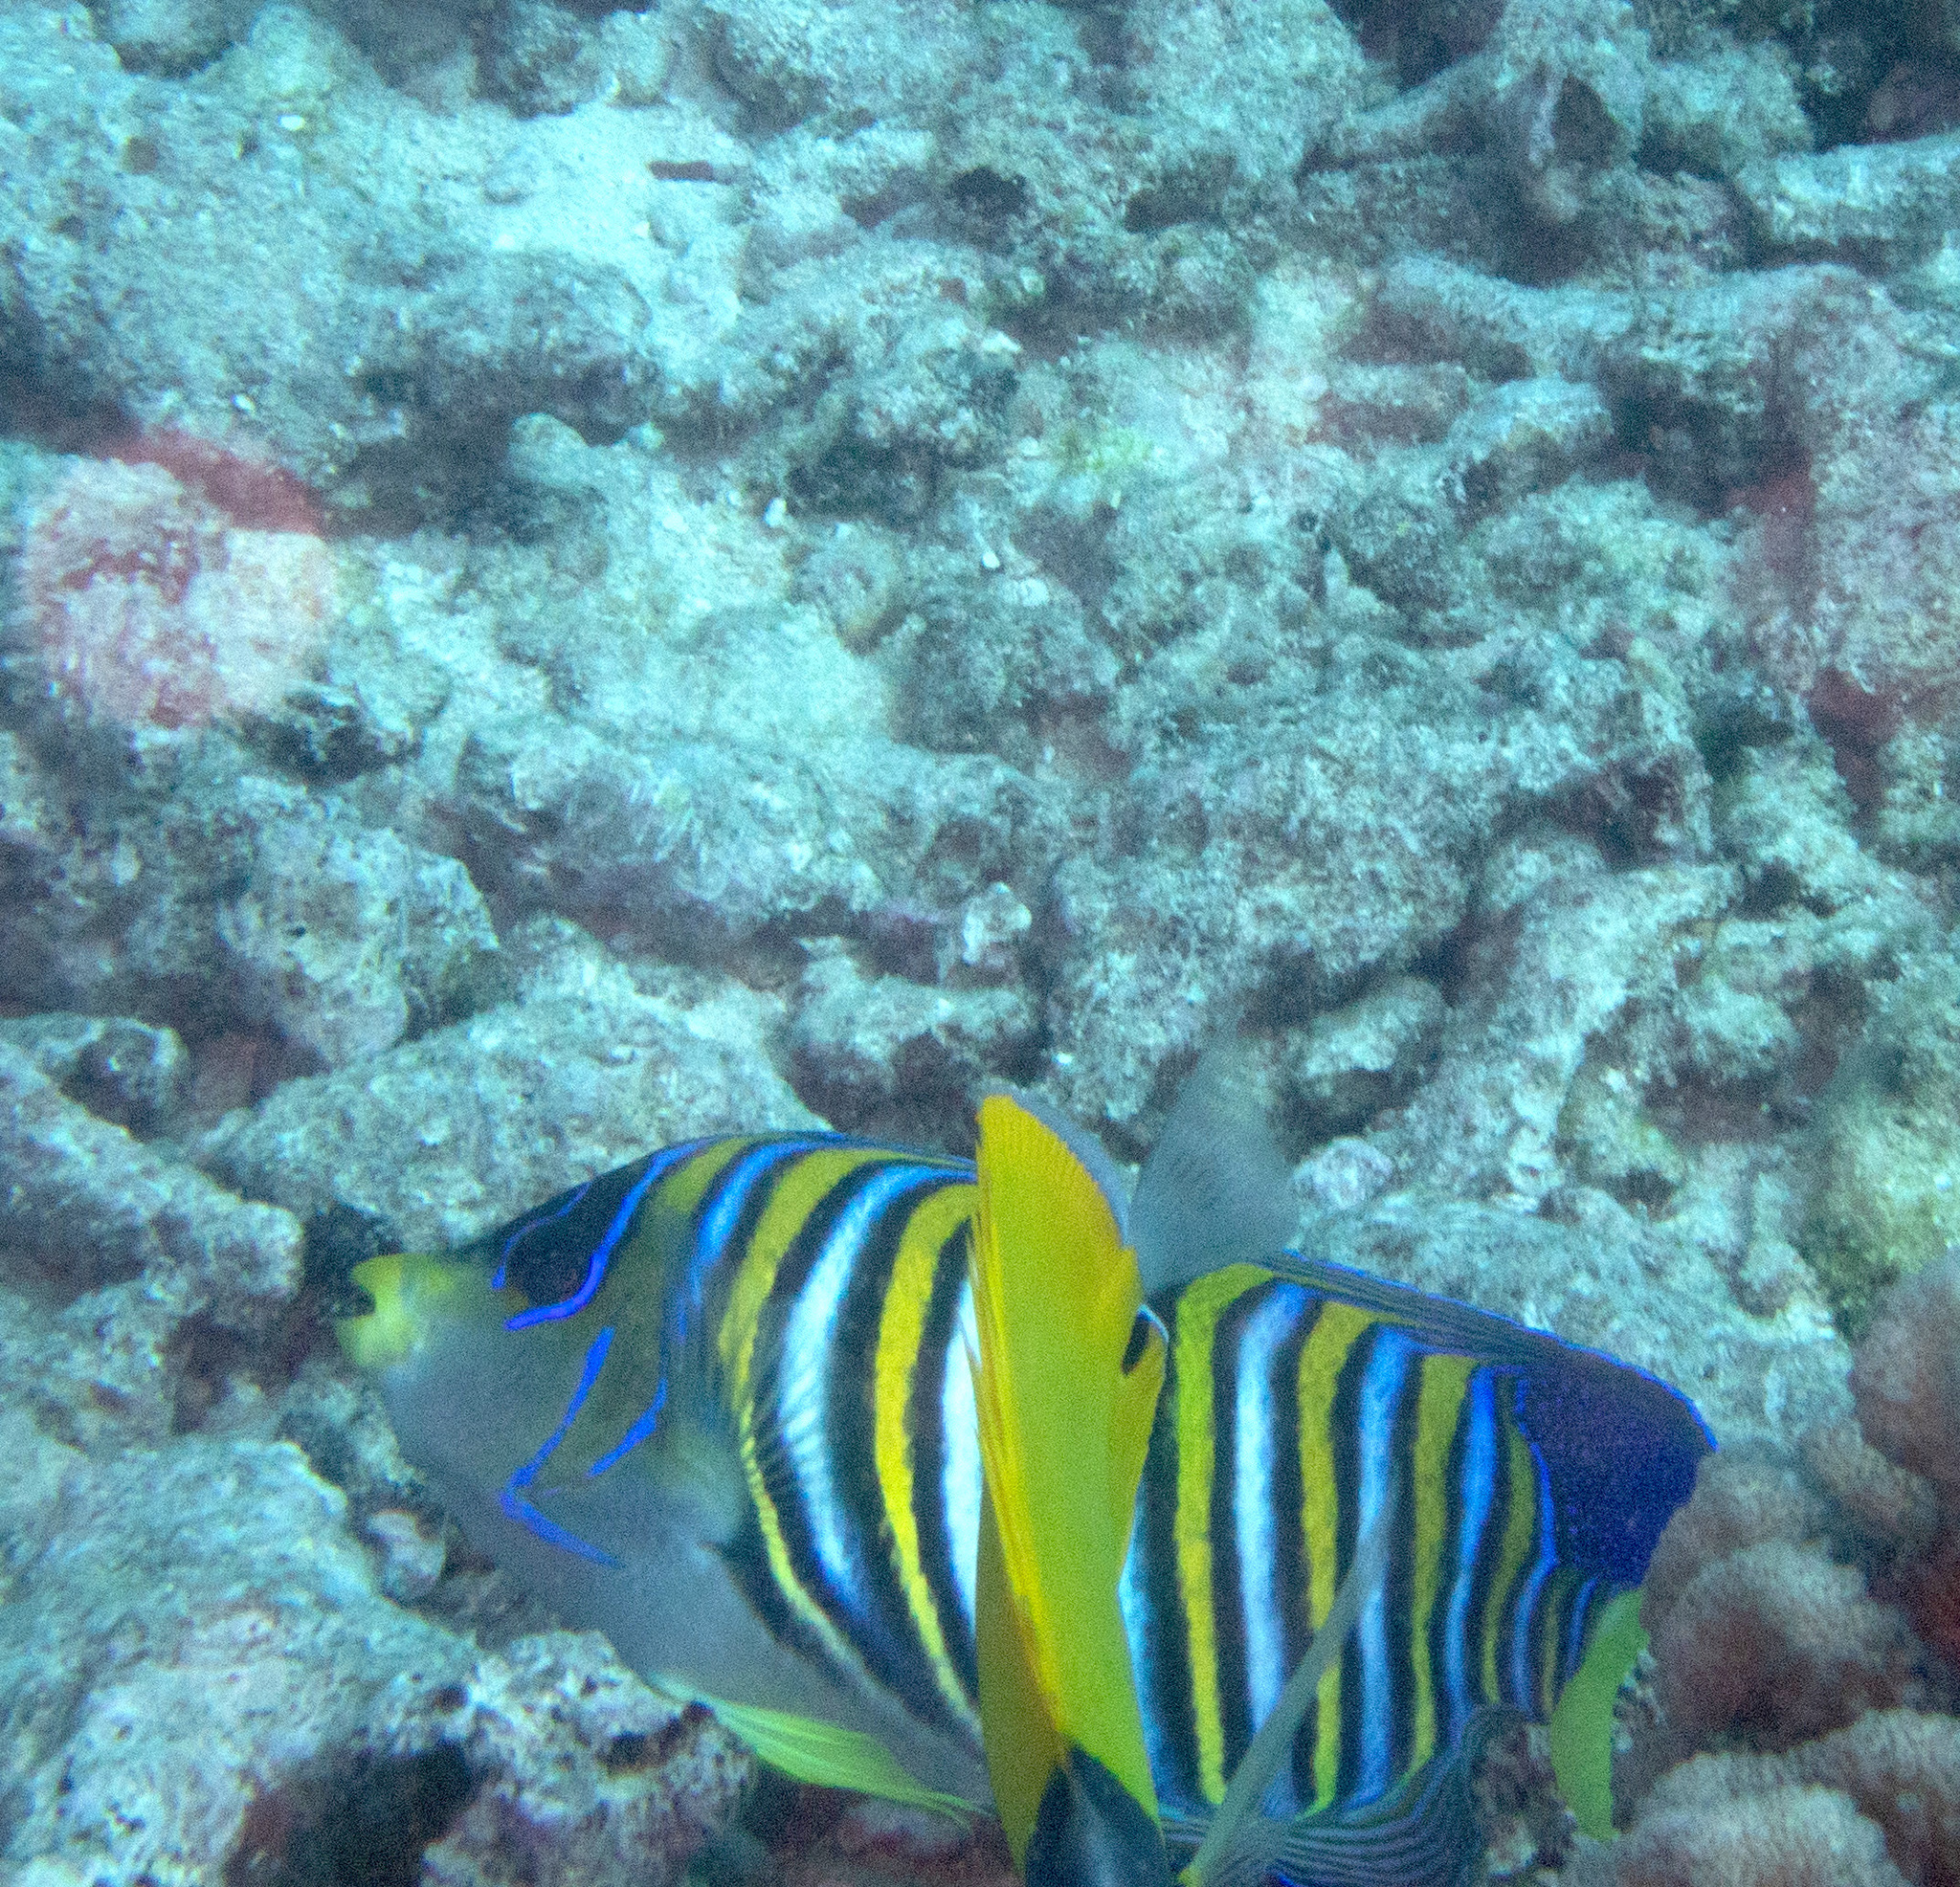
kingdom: Animalia
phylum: Chordata
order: Perciformes
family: Pomacanthidae
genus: Pygoplites
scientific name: Pygoplites diacanthus
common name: Regal angelfish
